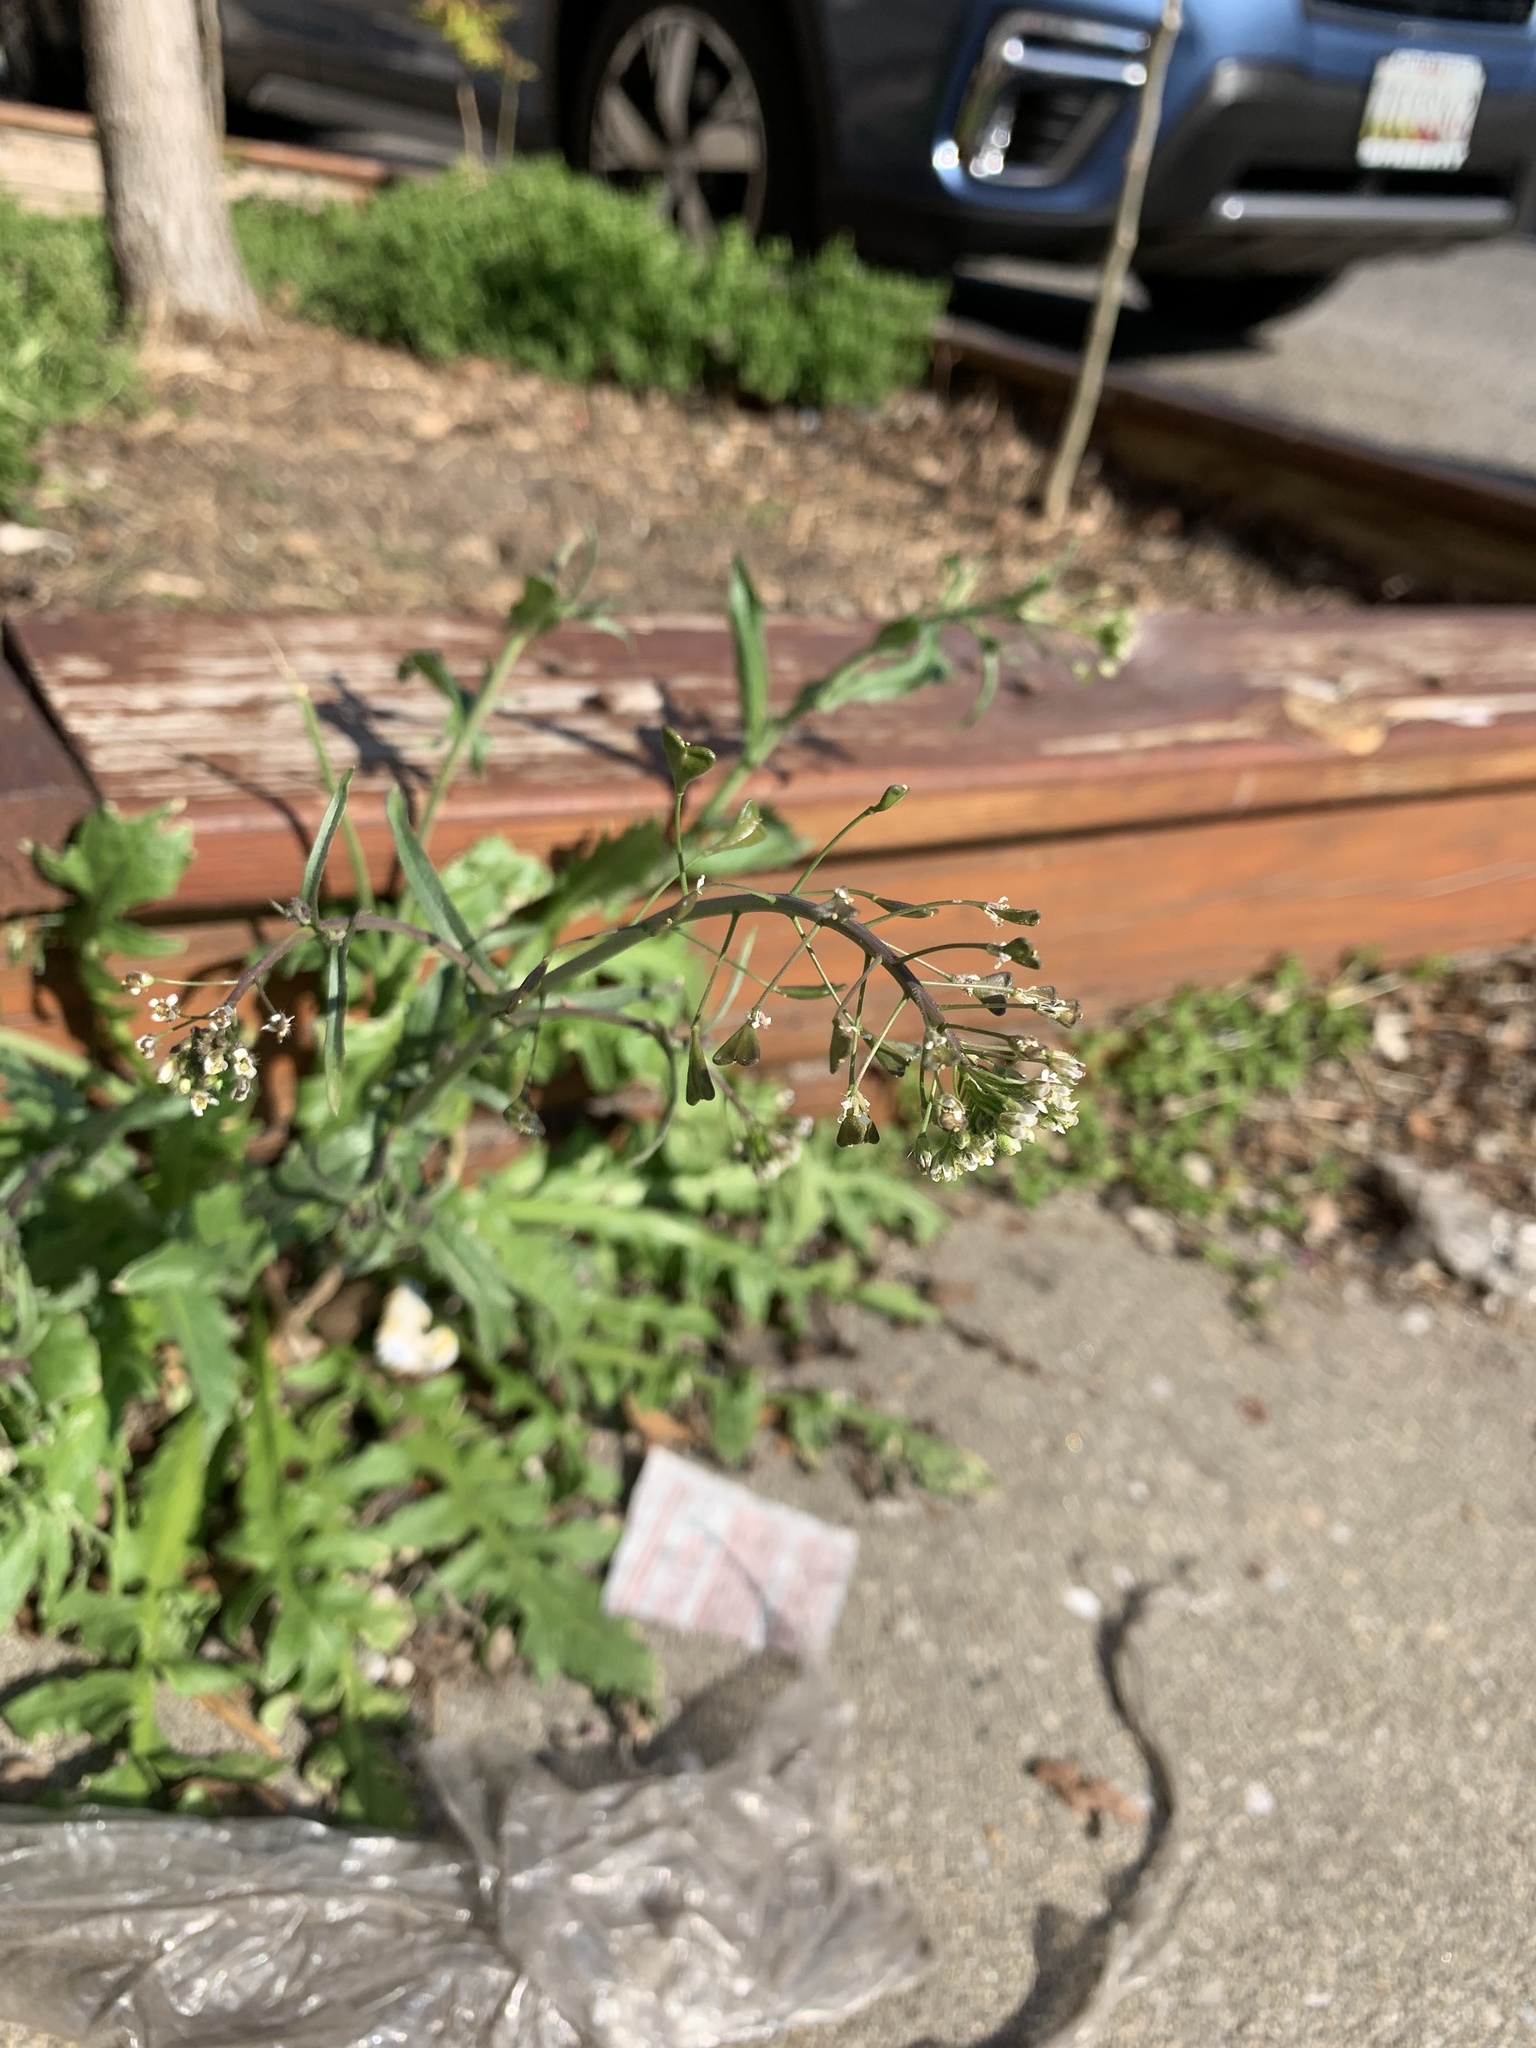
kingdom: Plantae
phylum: Tracheophyta
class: Magnoliopsida
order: Brassicales
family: Brassicaceae
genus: Capsella
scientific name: Capsella bursa-pastoris
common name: Shepherd's purse
